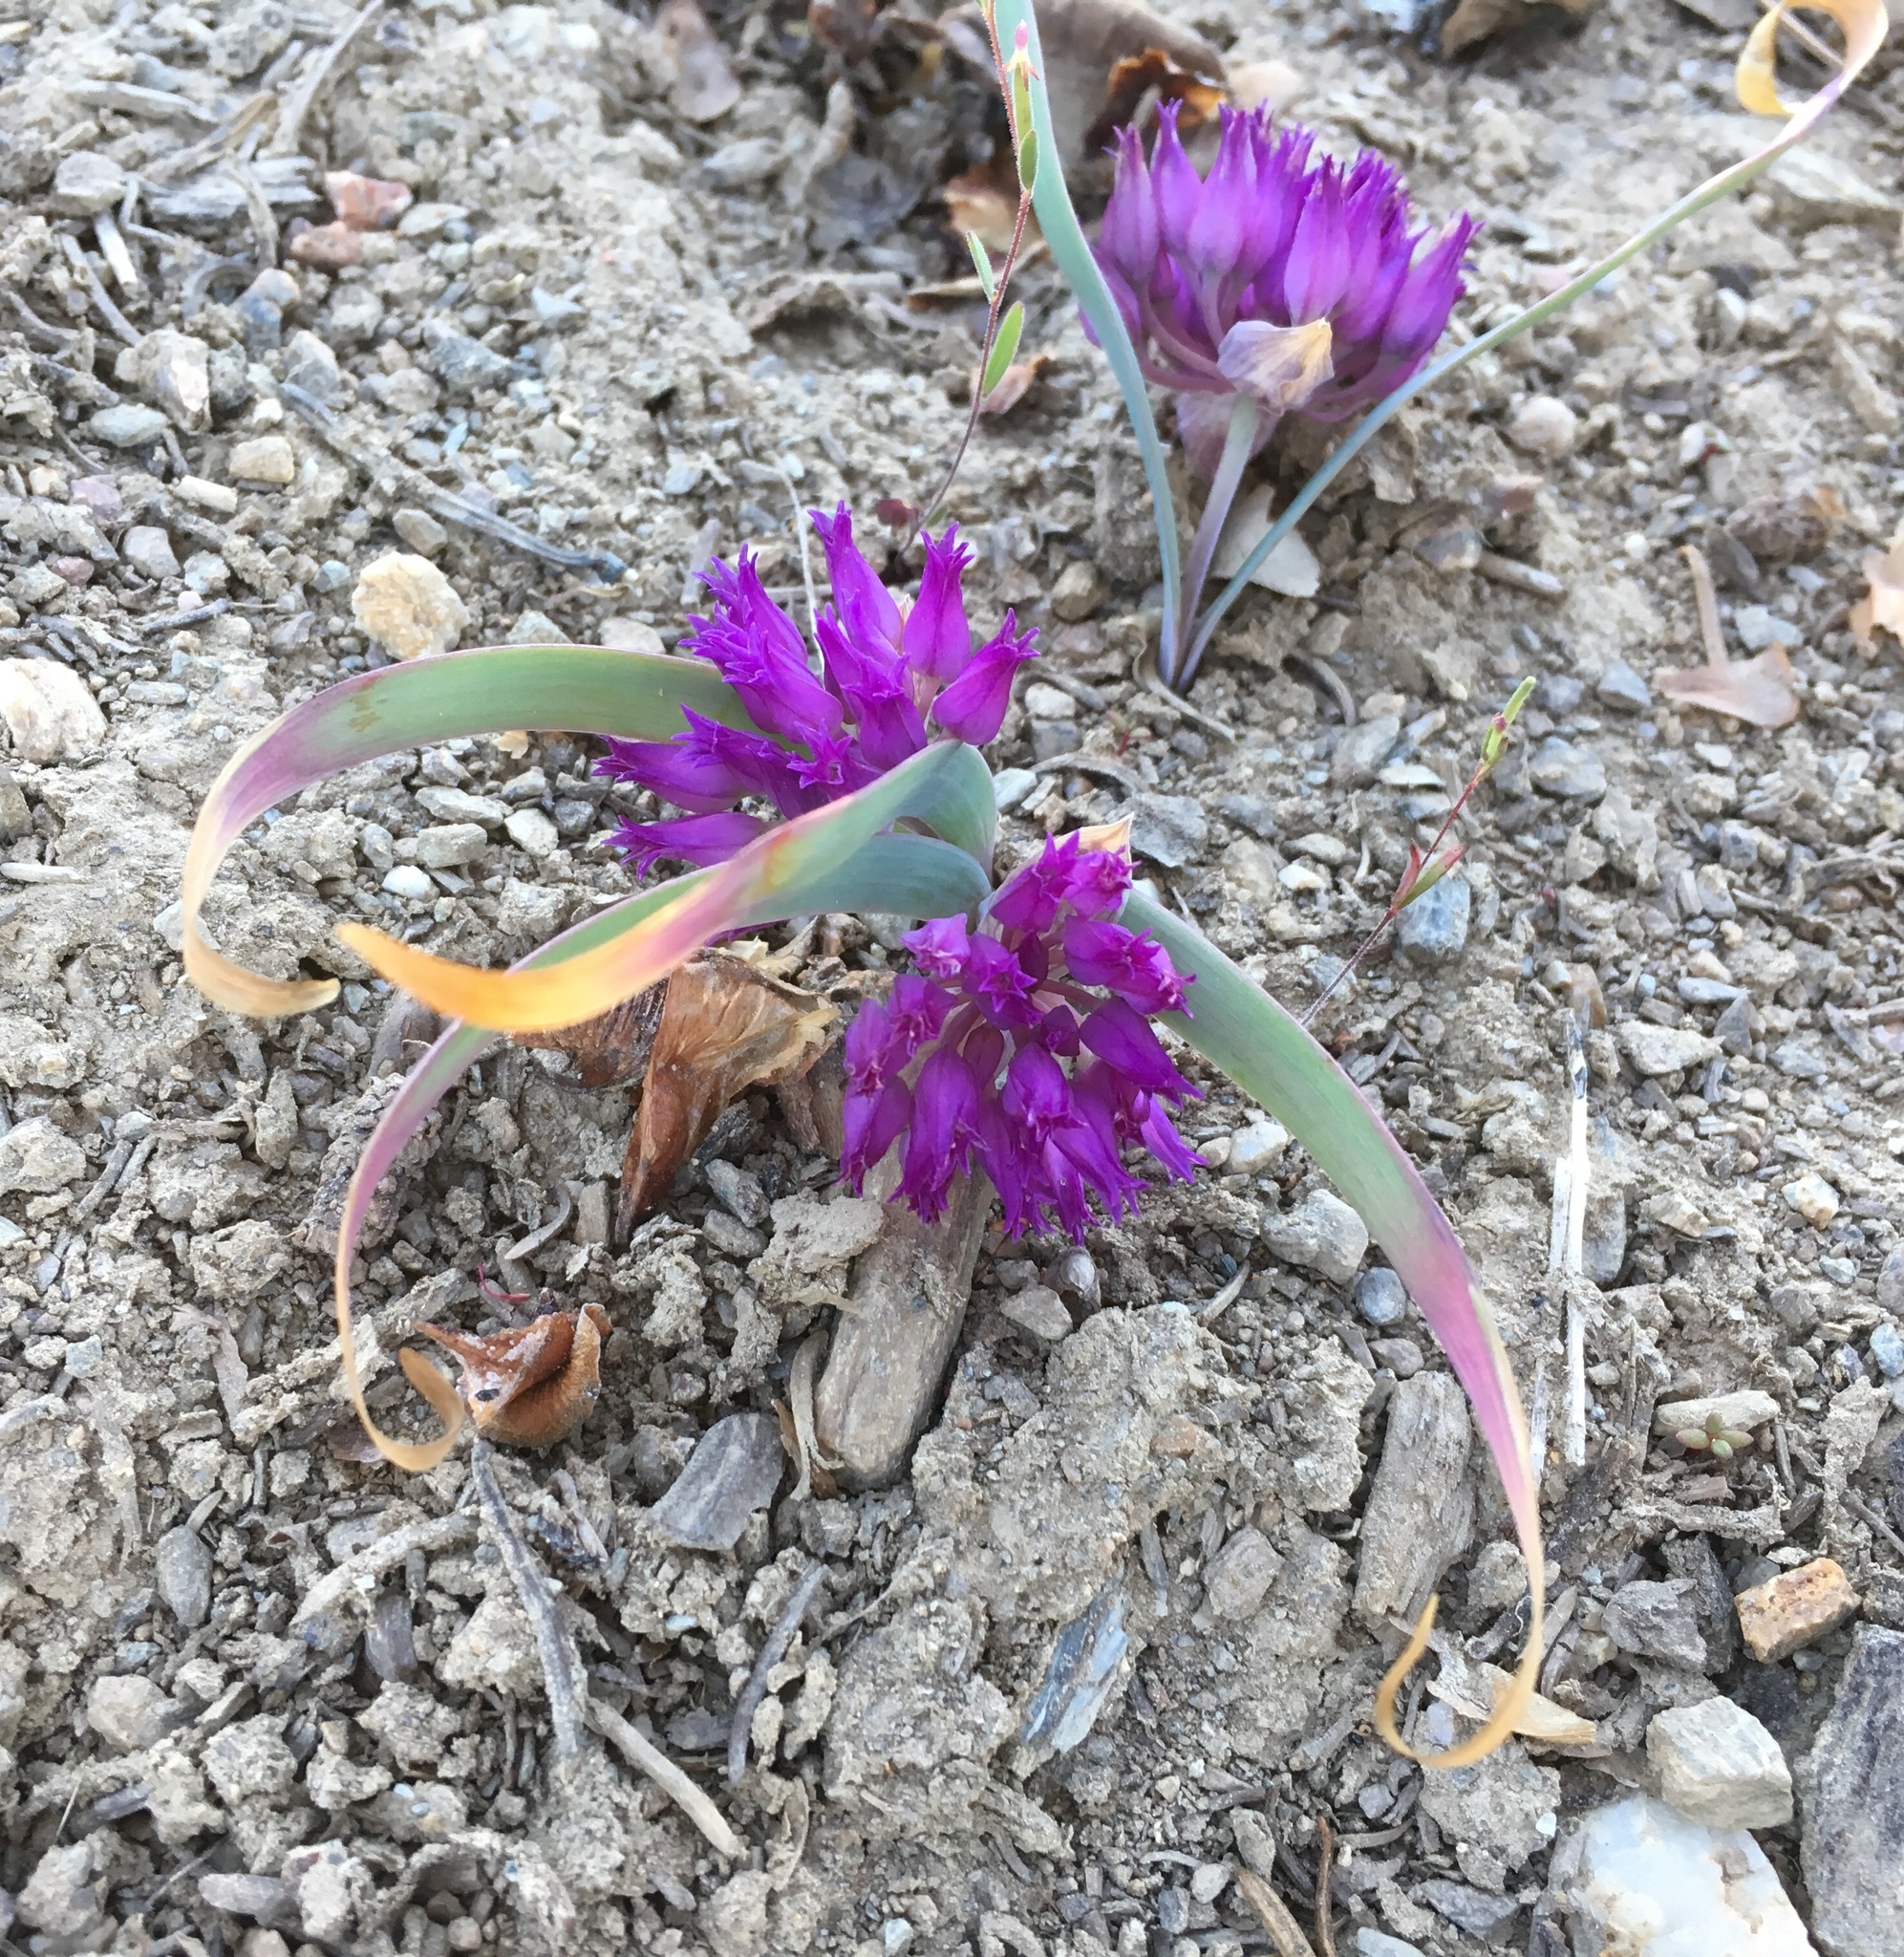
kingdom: Plantae
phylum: Tracheophyta
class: Liliopsida
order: Asparagales
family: Amaryllidaceae
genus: Allium
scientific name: Allium falcifolium
